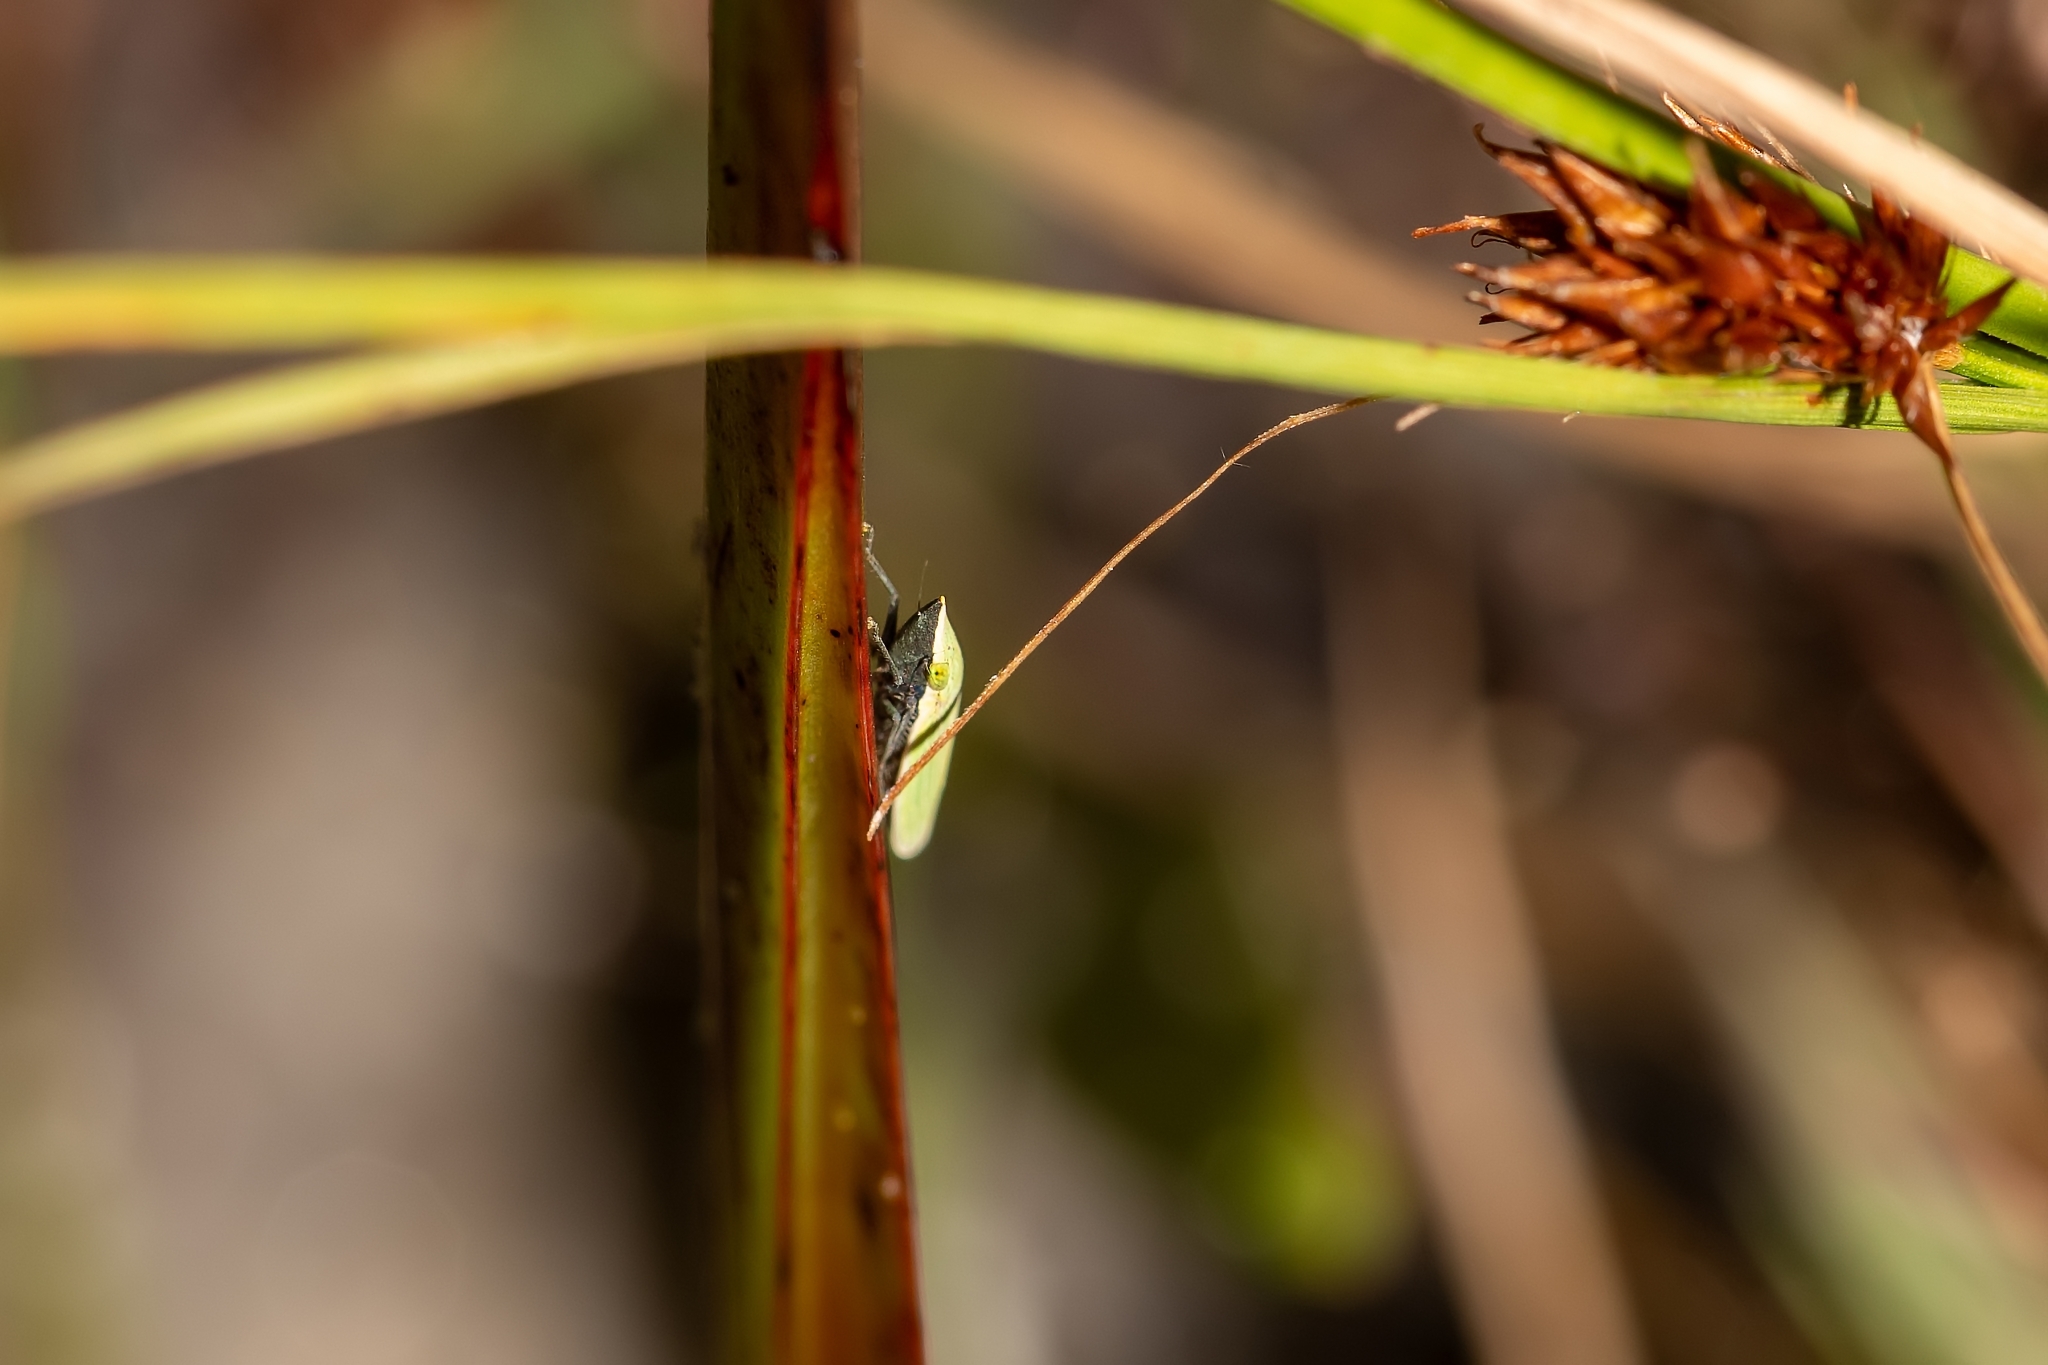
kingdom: Animalia
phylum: Arthropoda
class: Insecta
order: Hemiptera
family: Cicadellidae
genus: Draeculacephala
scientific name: Draeculacephala bradleyi
